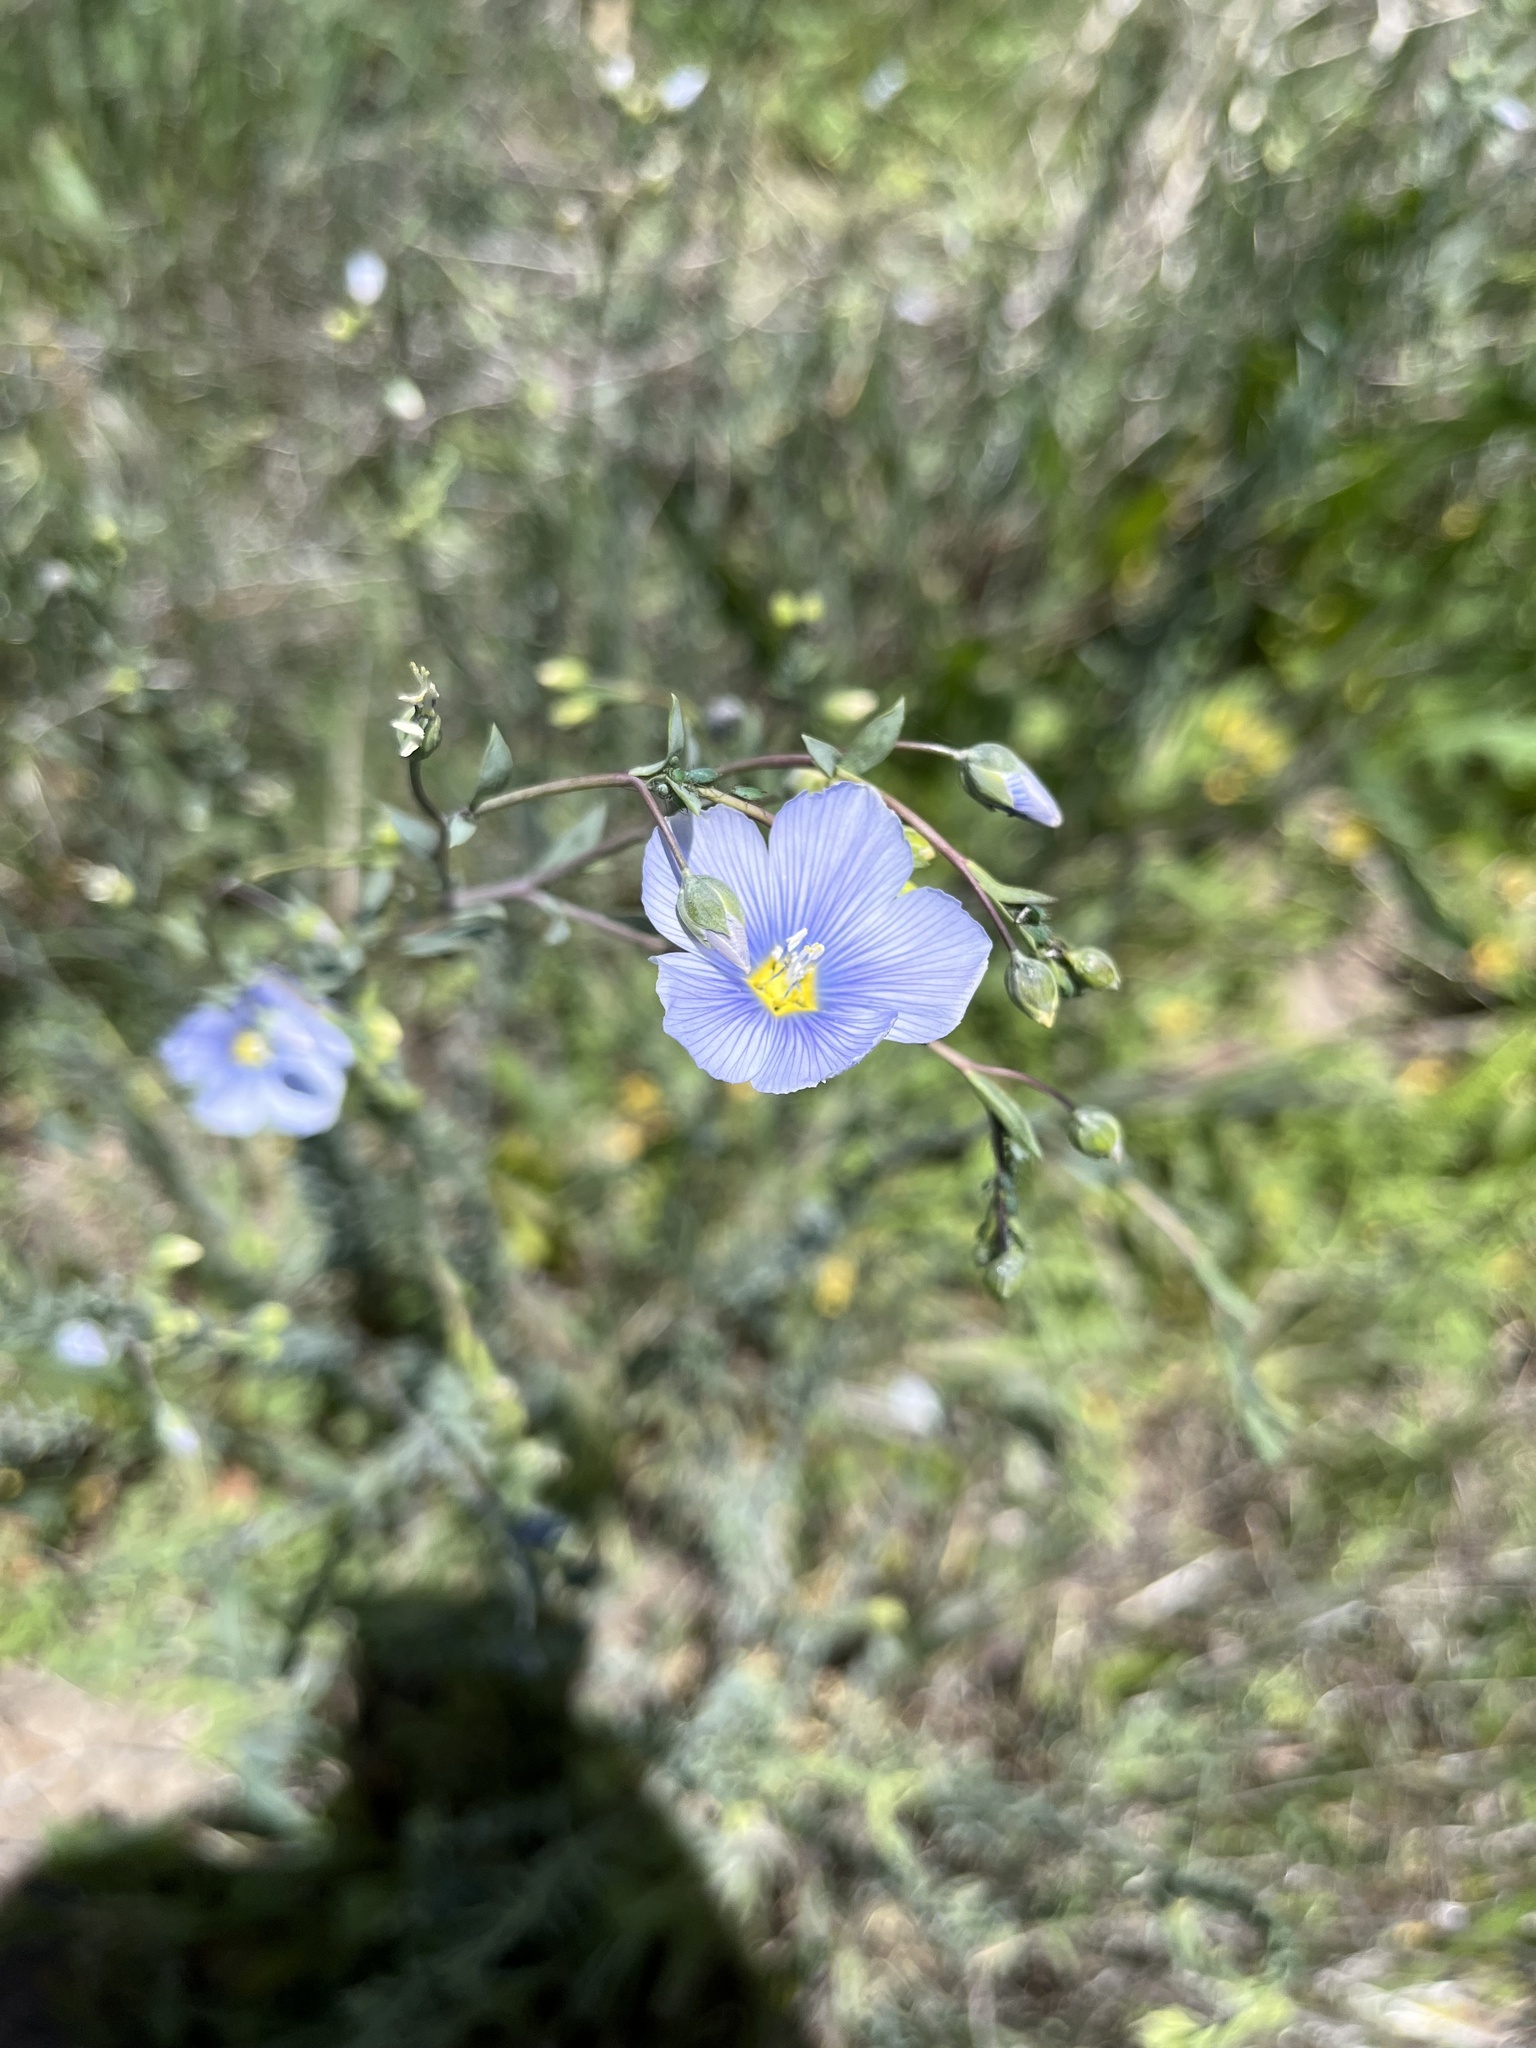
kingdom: Plantae
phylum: Tracheophyta
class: Magnoliopsida
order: Malpighiales
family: Linaceae
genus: Linum
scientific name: Linum lewisii
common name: Prairie flax
